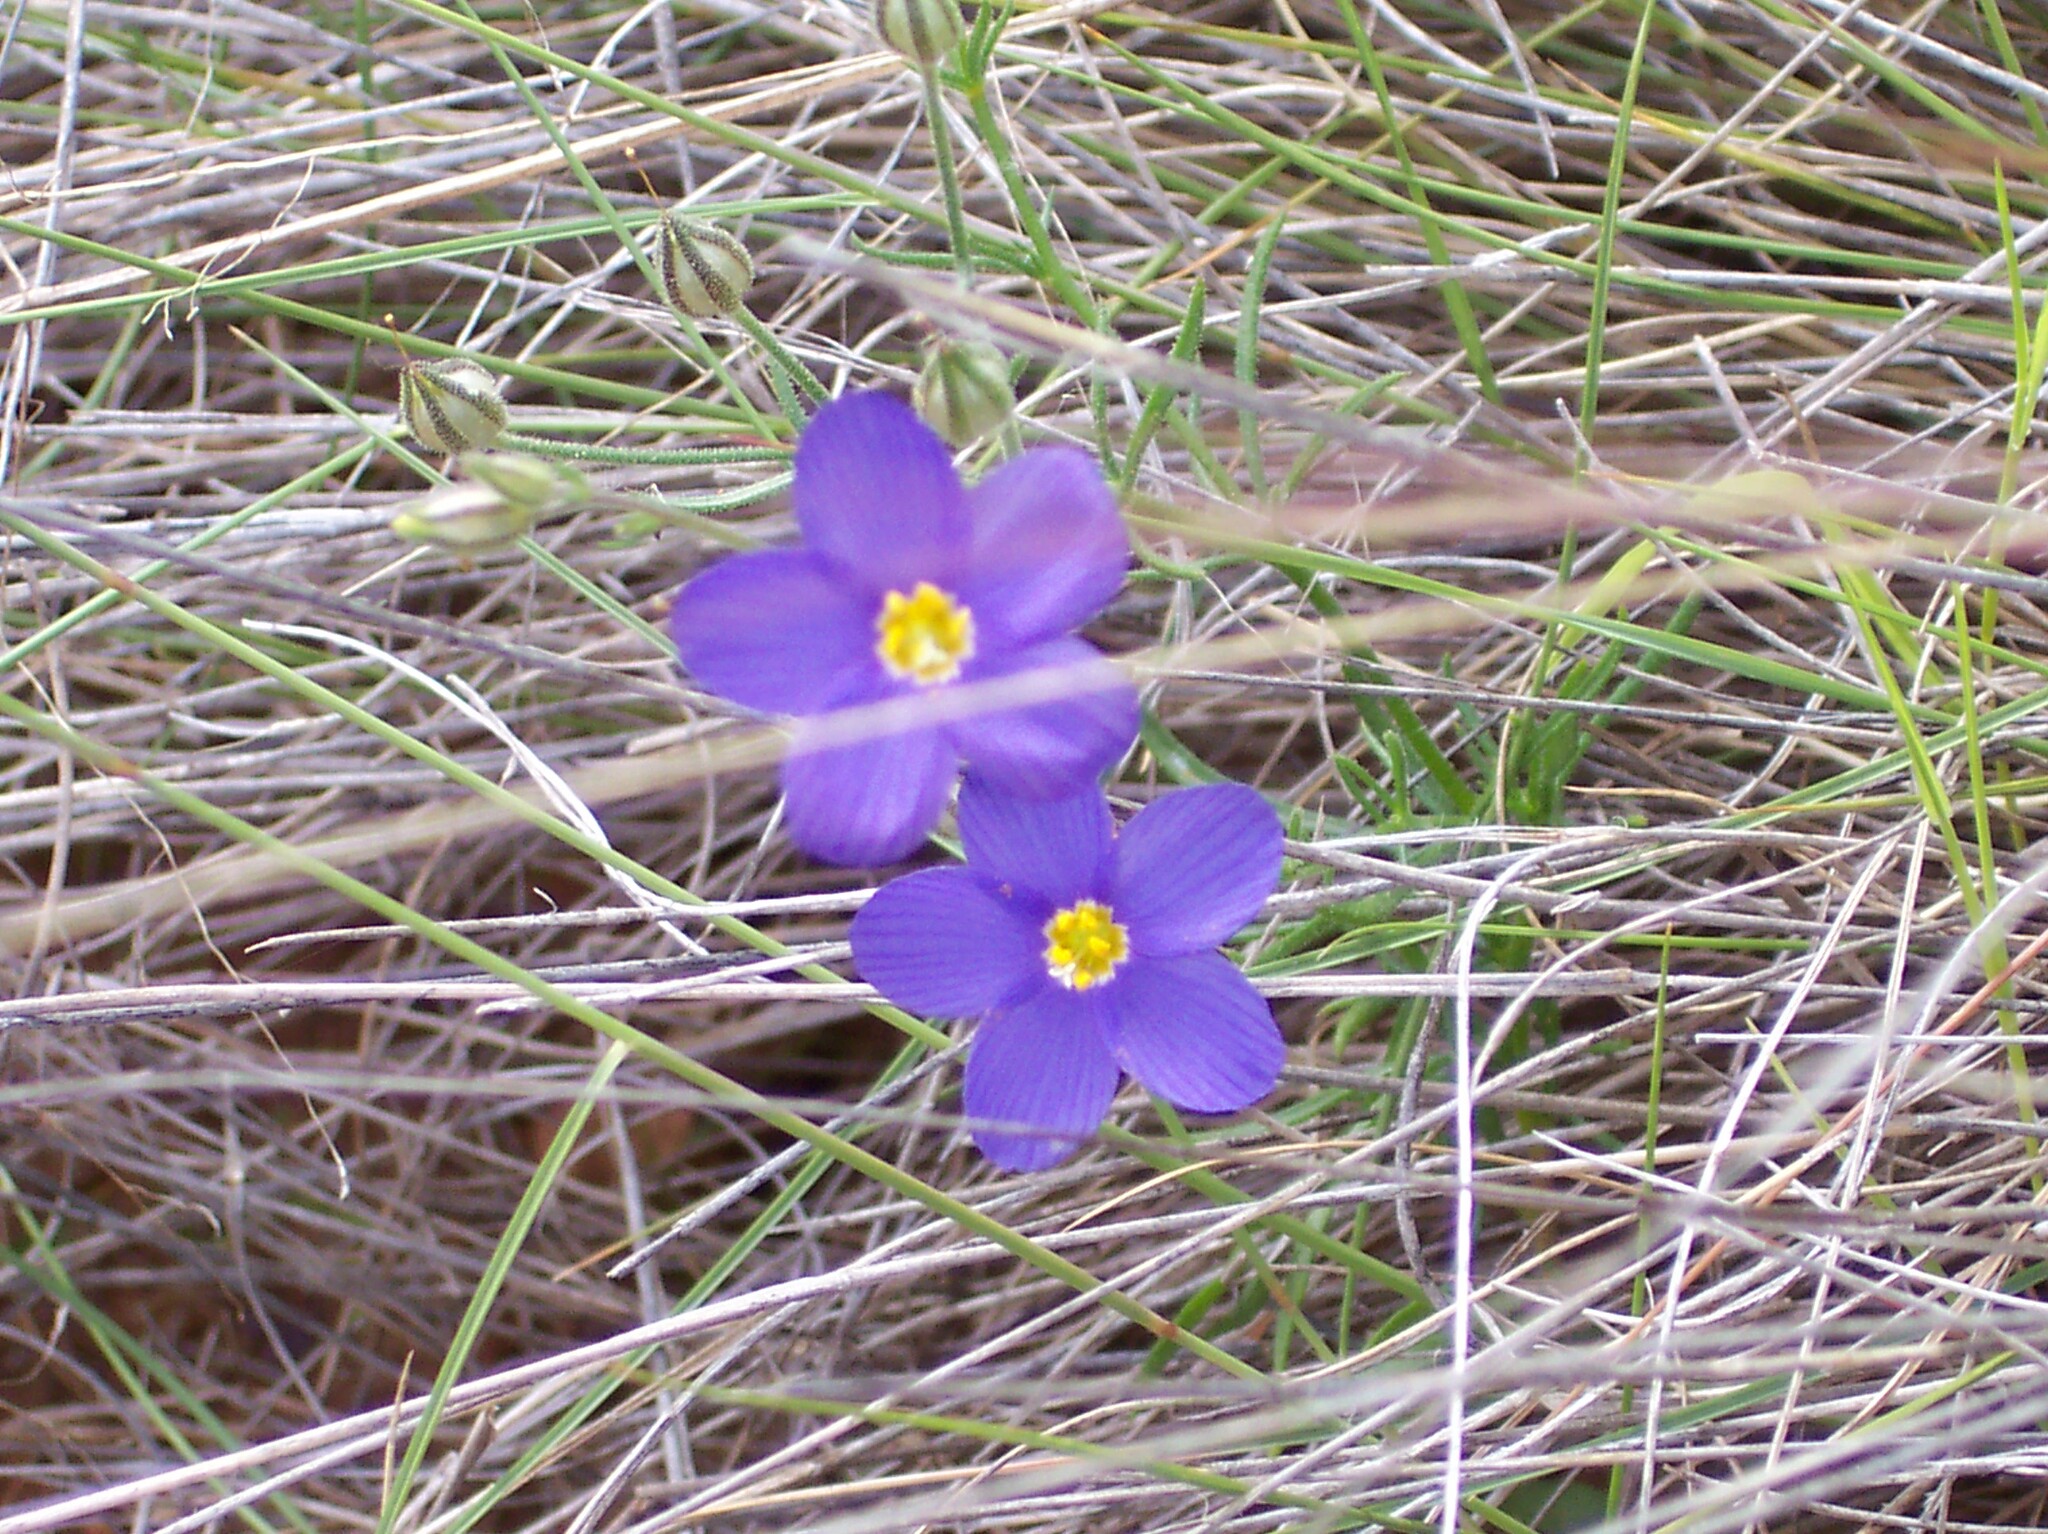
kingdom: Plantae
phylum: Tracheophyta
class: Magnoliopsida
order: Ericales
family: Polemoniaceae
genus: Giliastrum
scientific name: Giliastrum rigidulum
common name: Bluebowls
